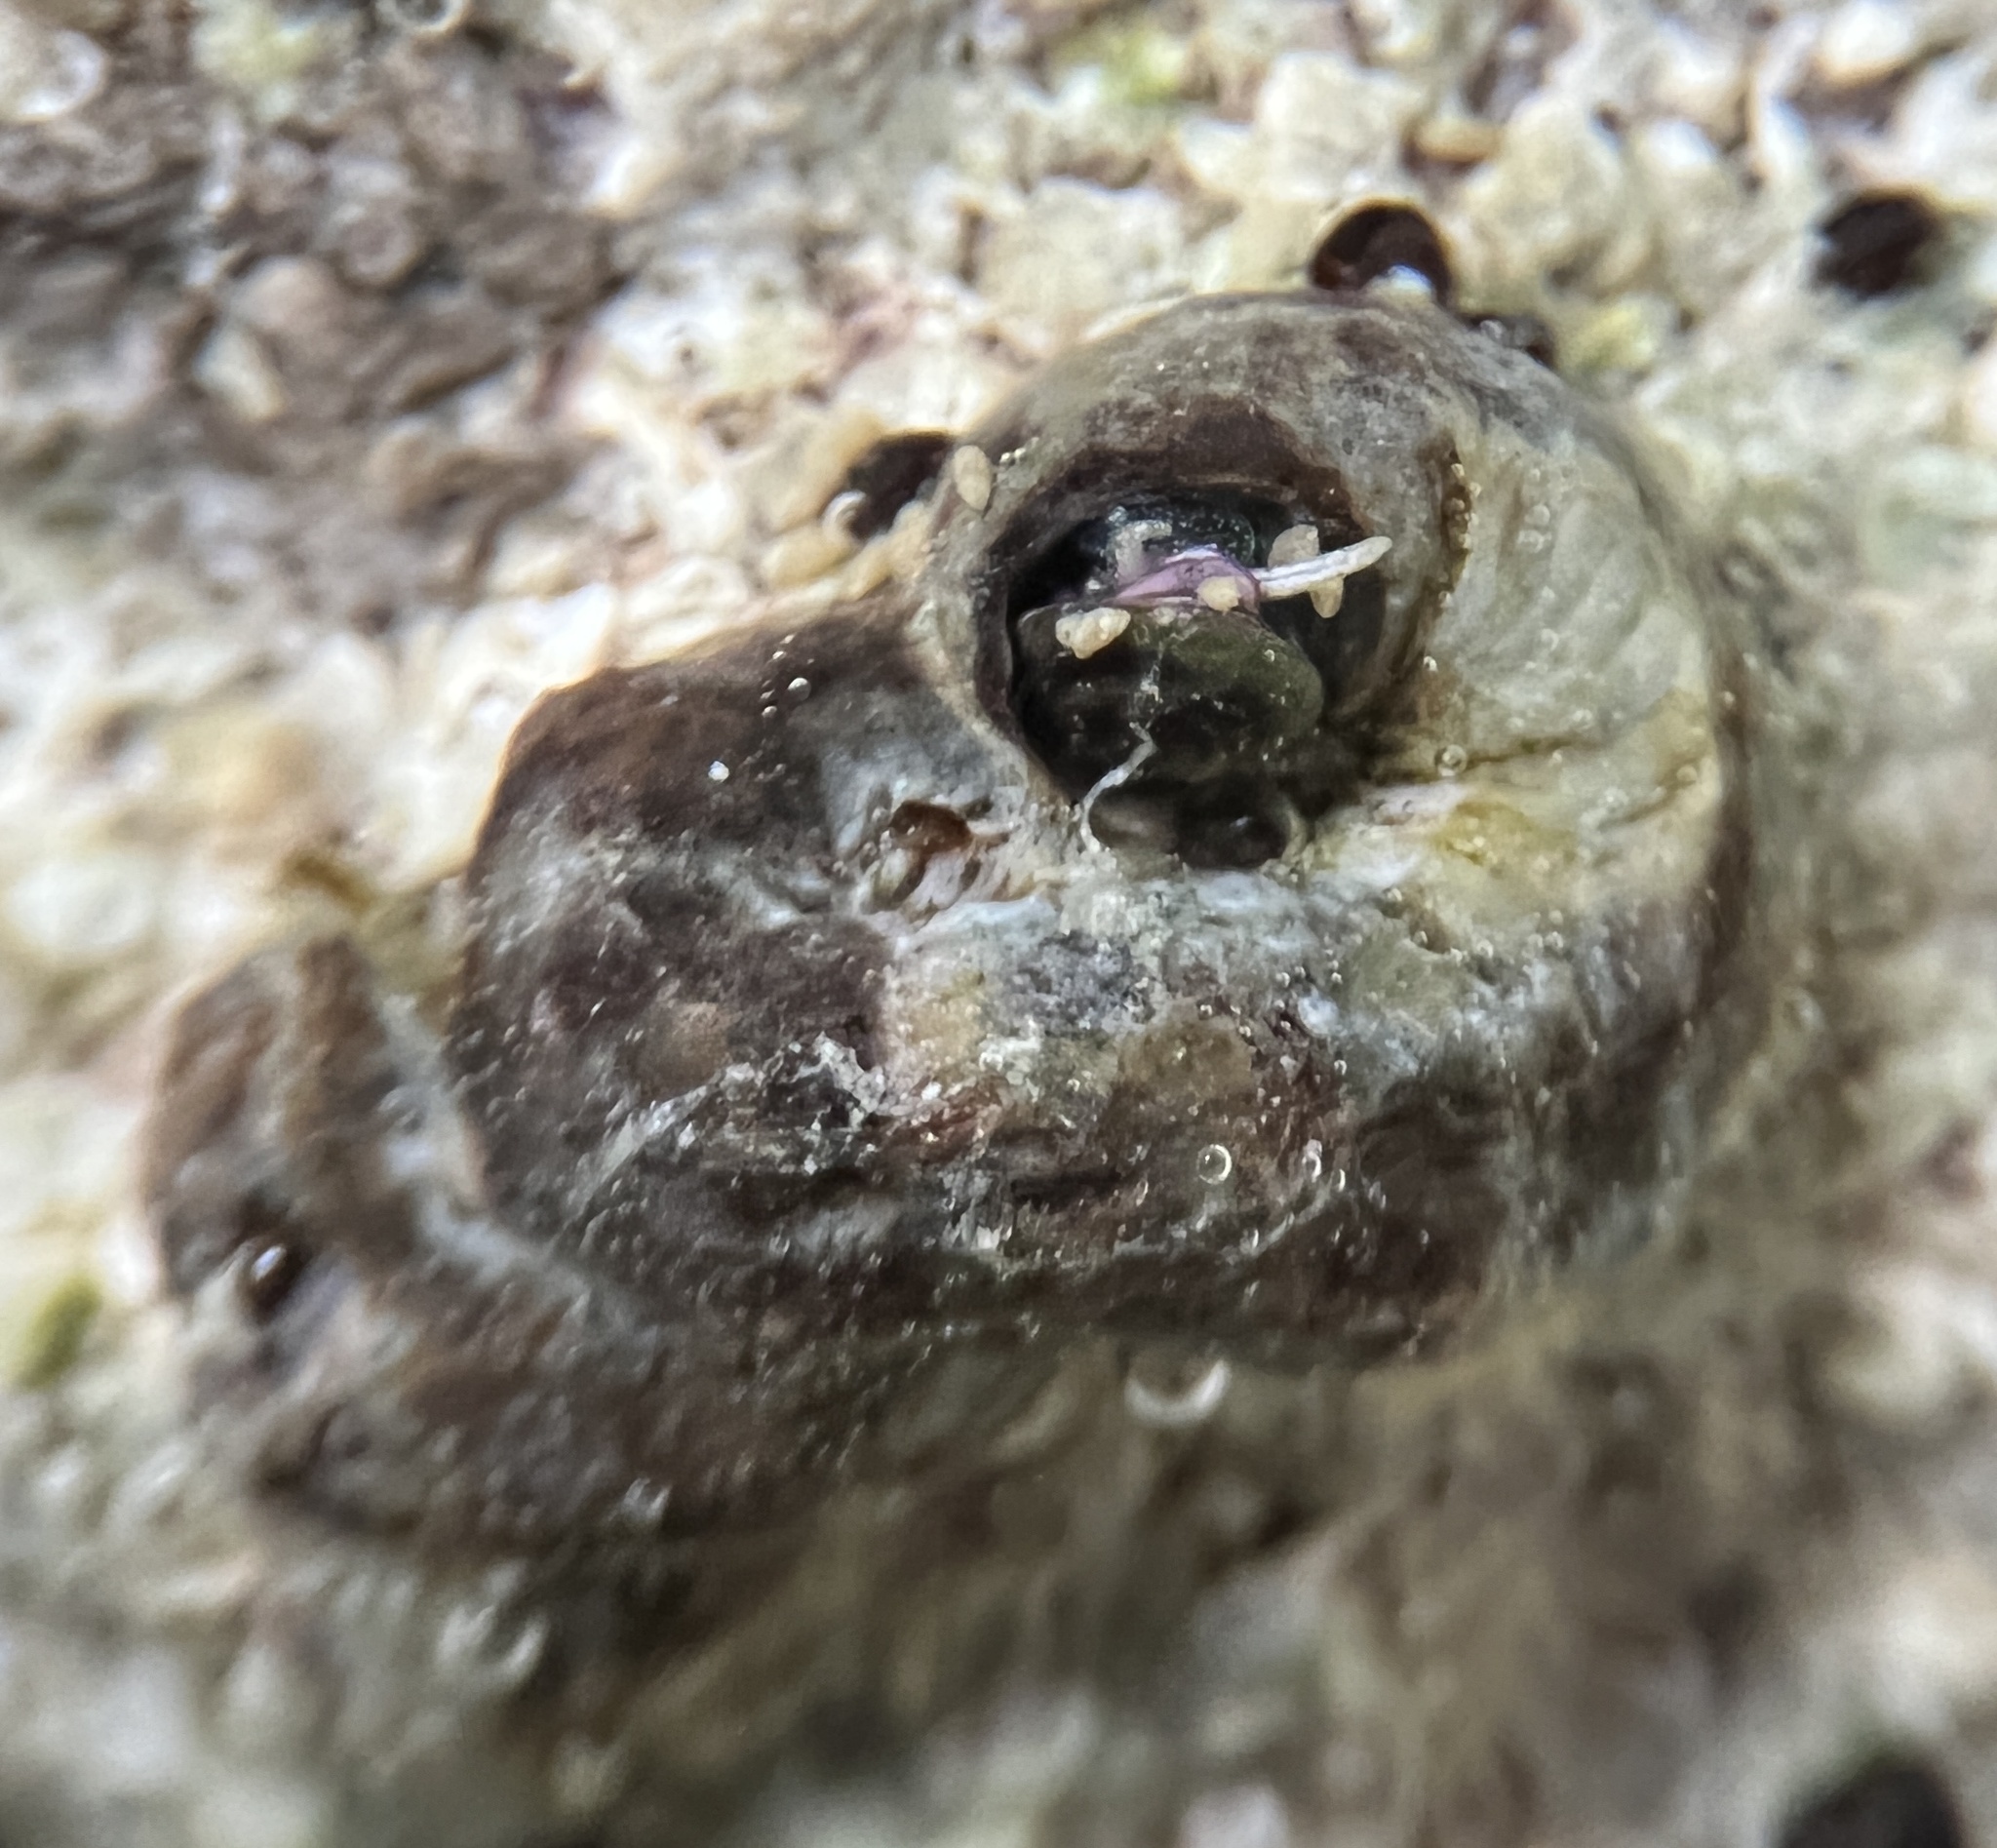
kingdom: Animalia
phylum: Mollusca
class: Gastropoda
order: Littorinimorpha
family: Vermetidae
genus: Dendropoma
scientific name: Dendropoma corrodens
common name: Ringed wormsnail
